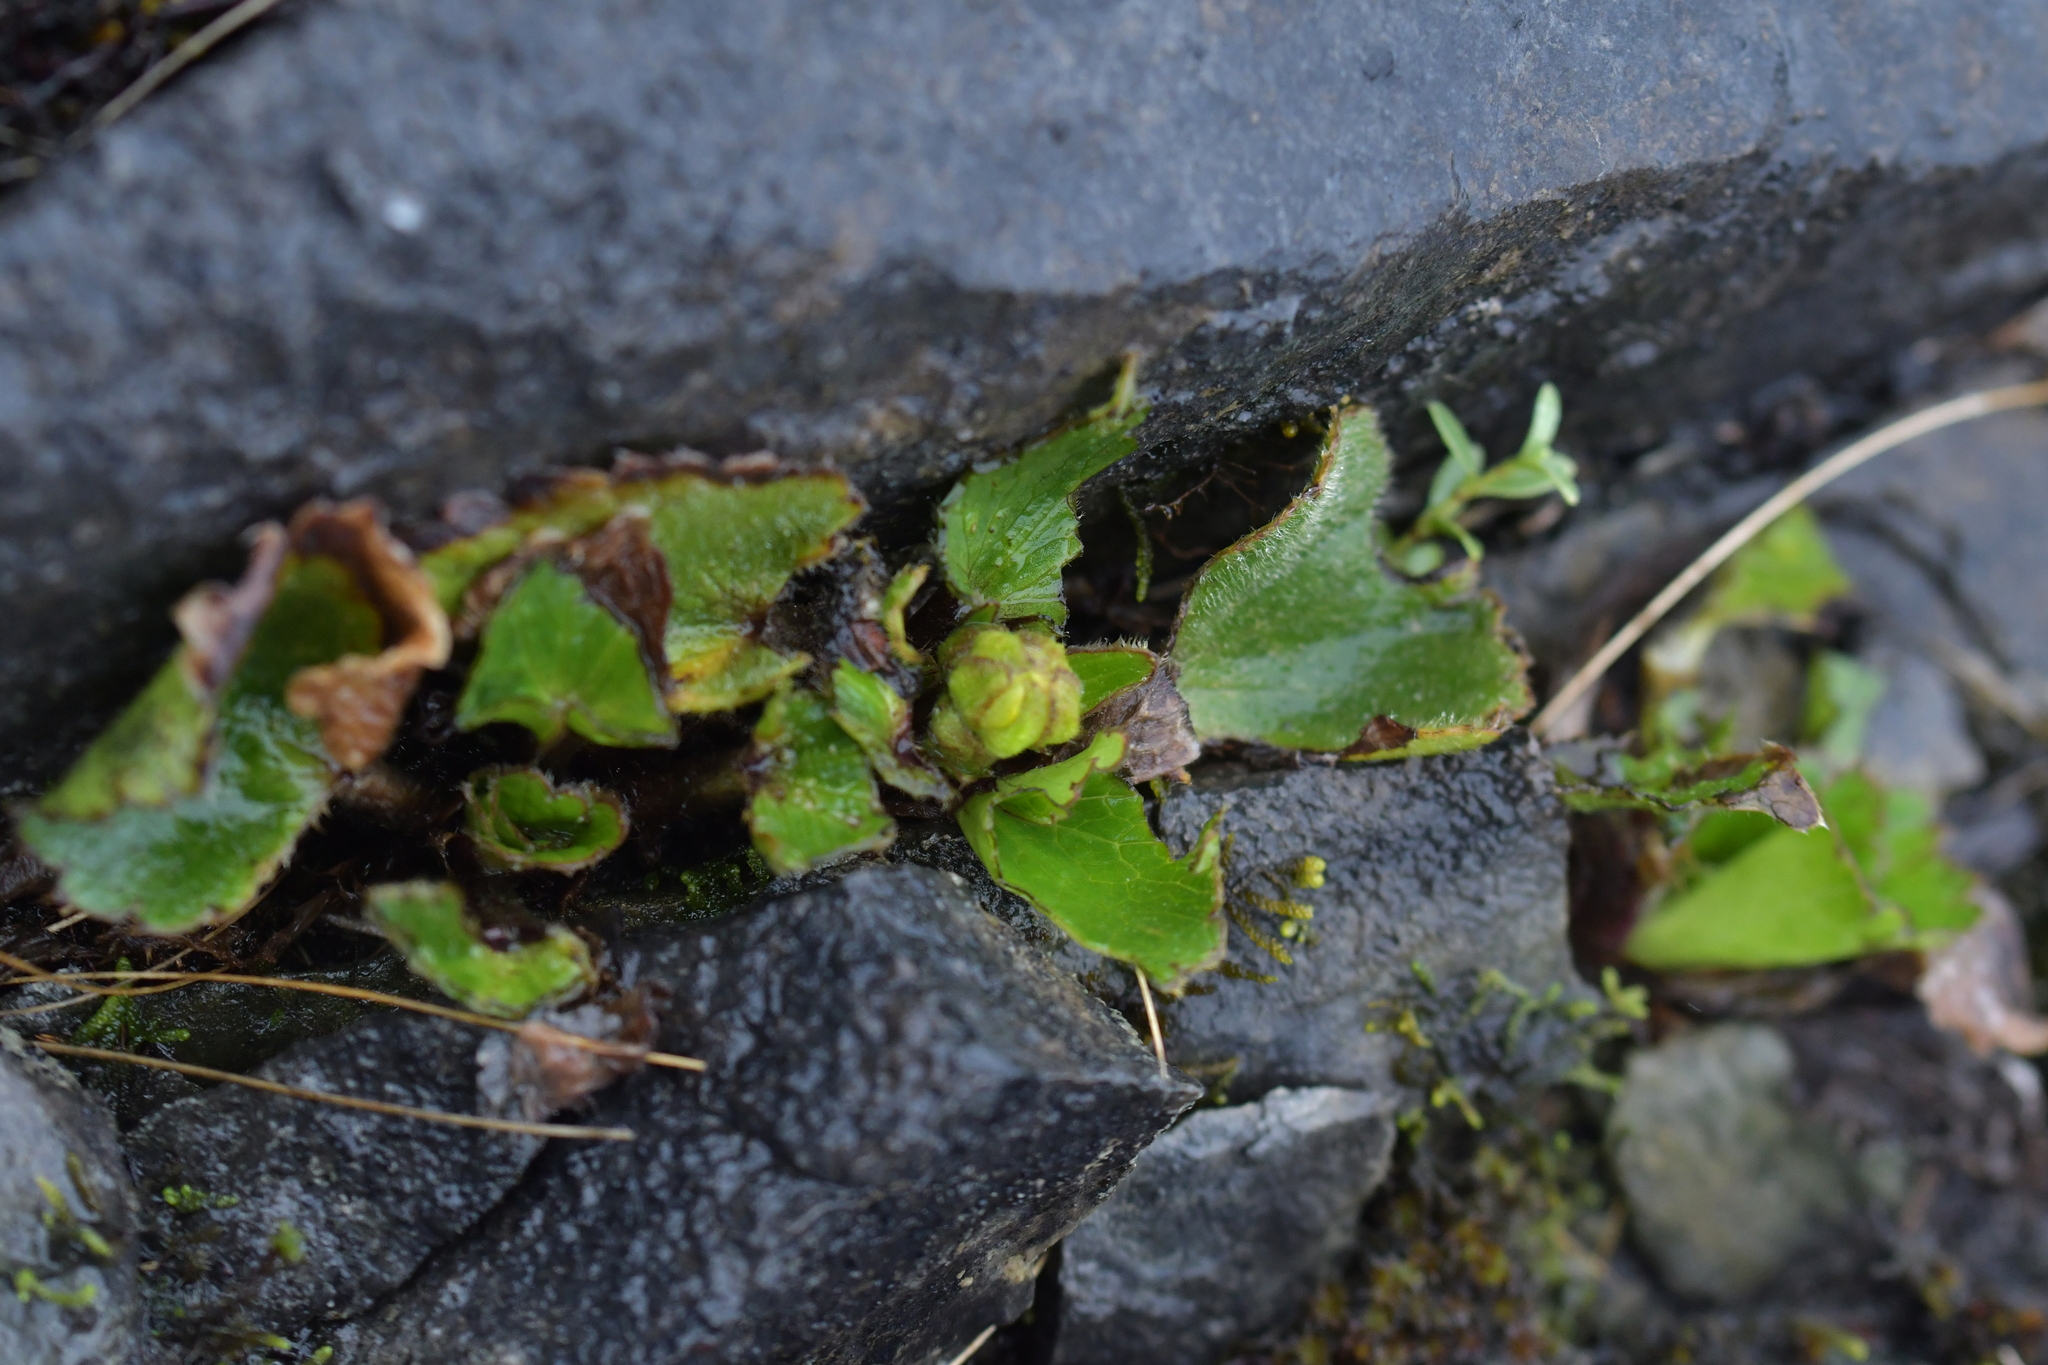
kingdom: Plantae
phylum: Tracheophyta
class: Magnoliopsida
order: Ranunculales
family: Ranunculaceae
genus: Ranunculus
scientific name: Ranunculus insignis
